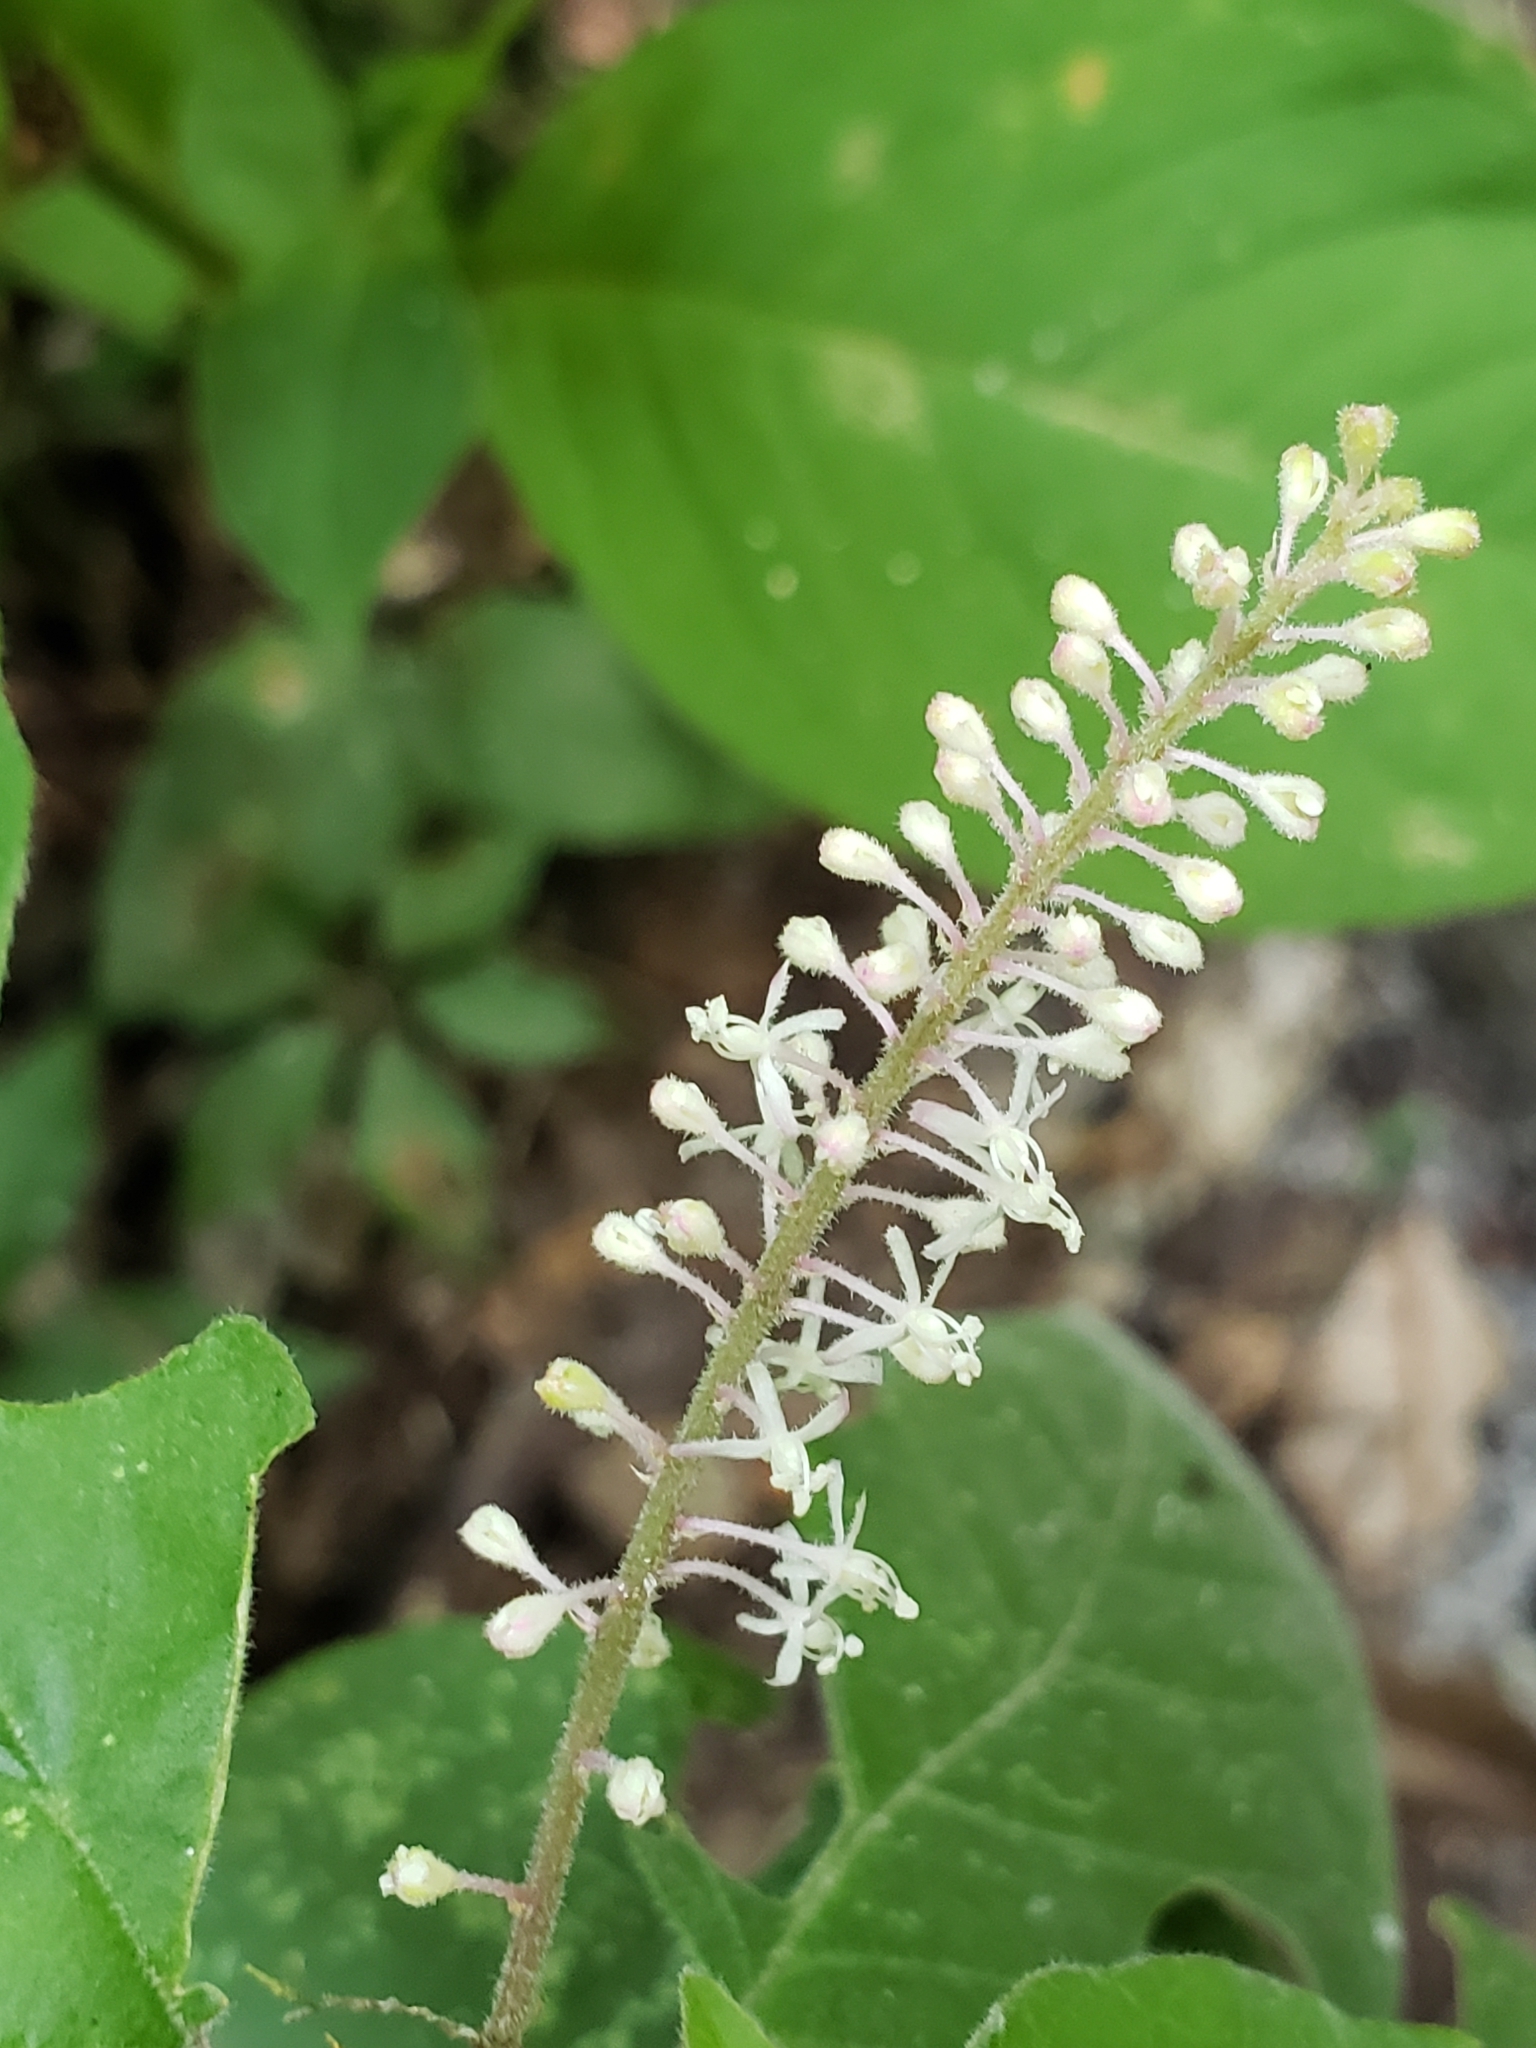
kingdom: Plantae
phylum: Tracheophyta
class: Magnoliopsida
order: Caryophyllales
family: Phytolaccaceae
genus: Rivina
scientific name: Rivina humilis
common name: Rougeplant
